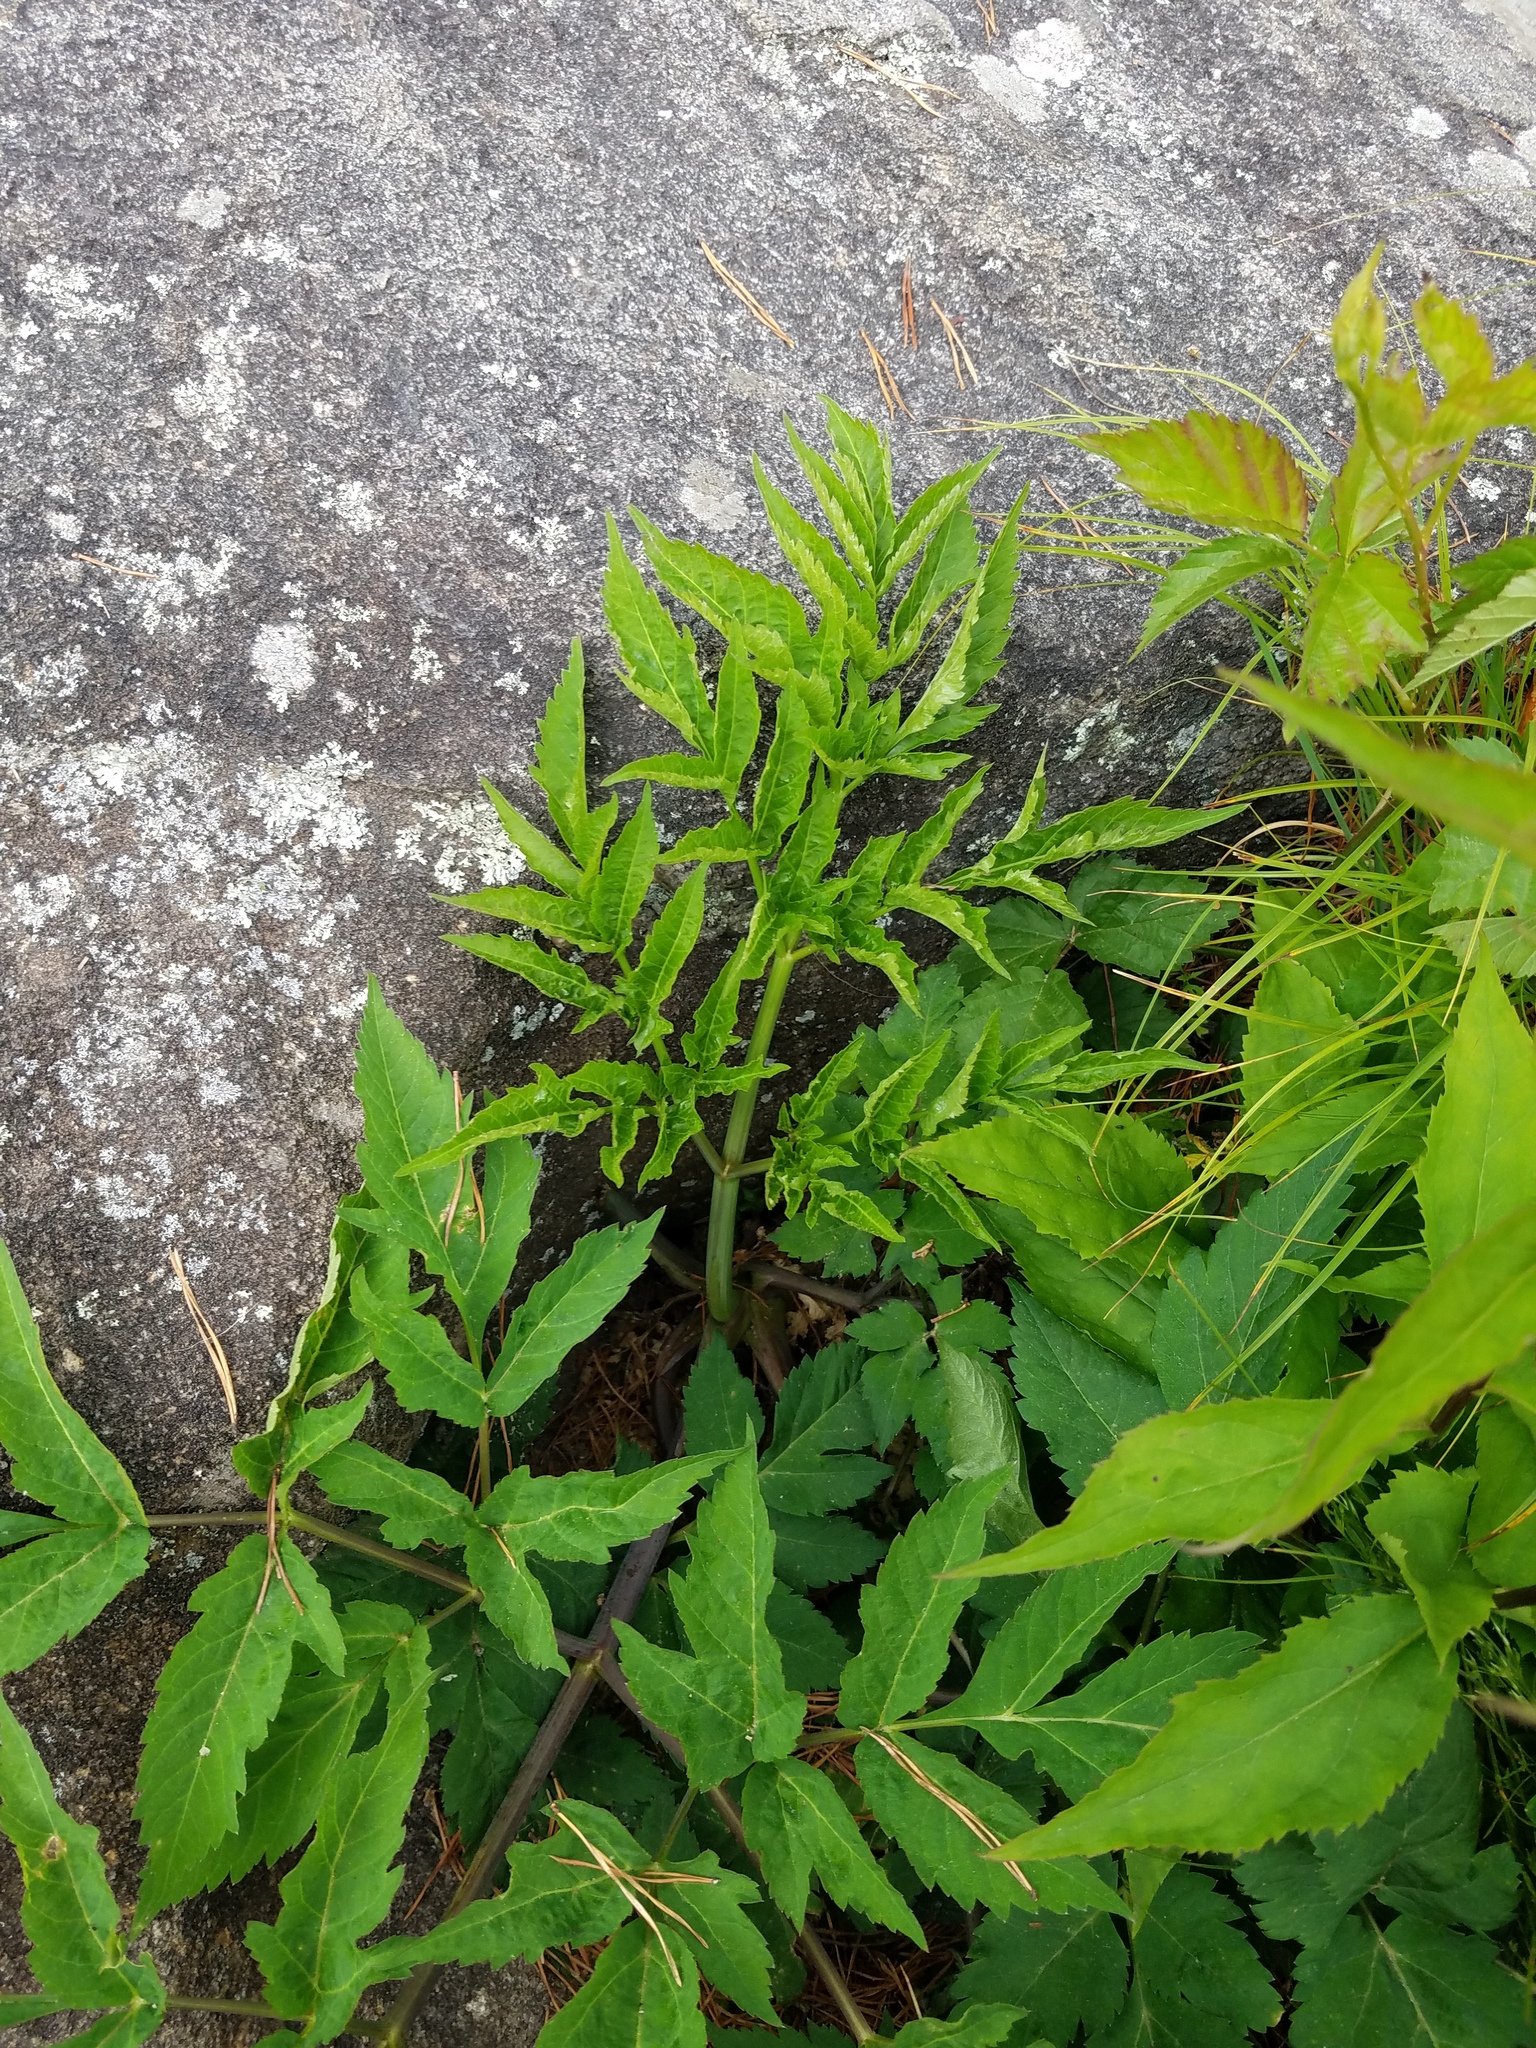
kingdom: Plantae
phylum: Tracheophyta
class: Magnoliopsida
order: Apiales
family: Apiaceae
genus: Angelica
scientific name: Angelica triquinata
